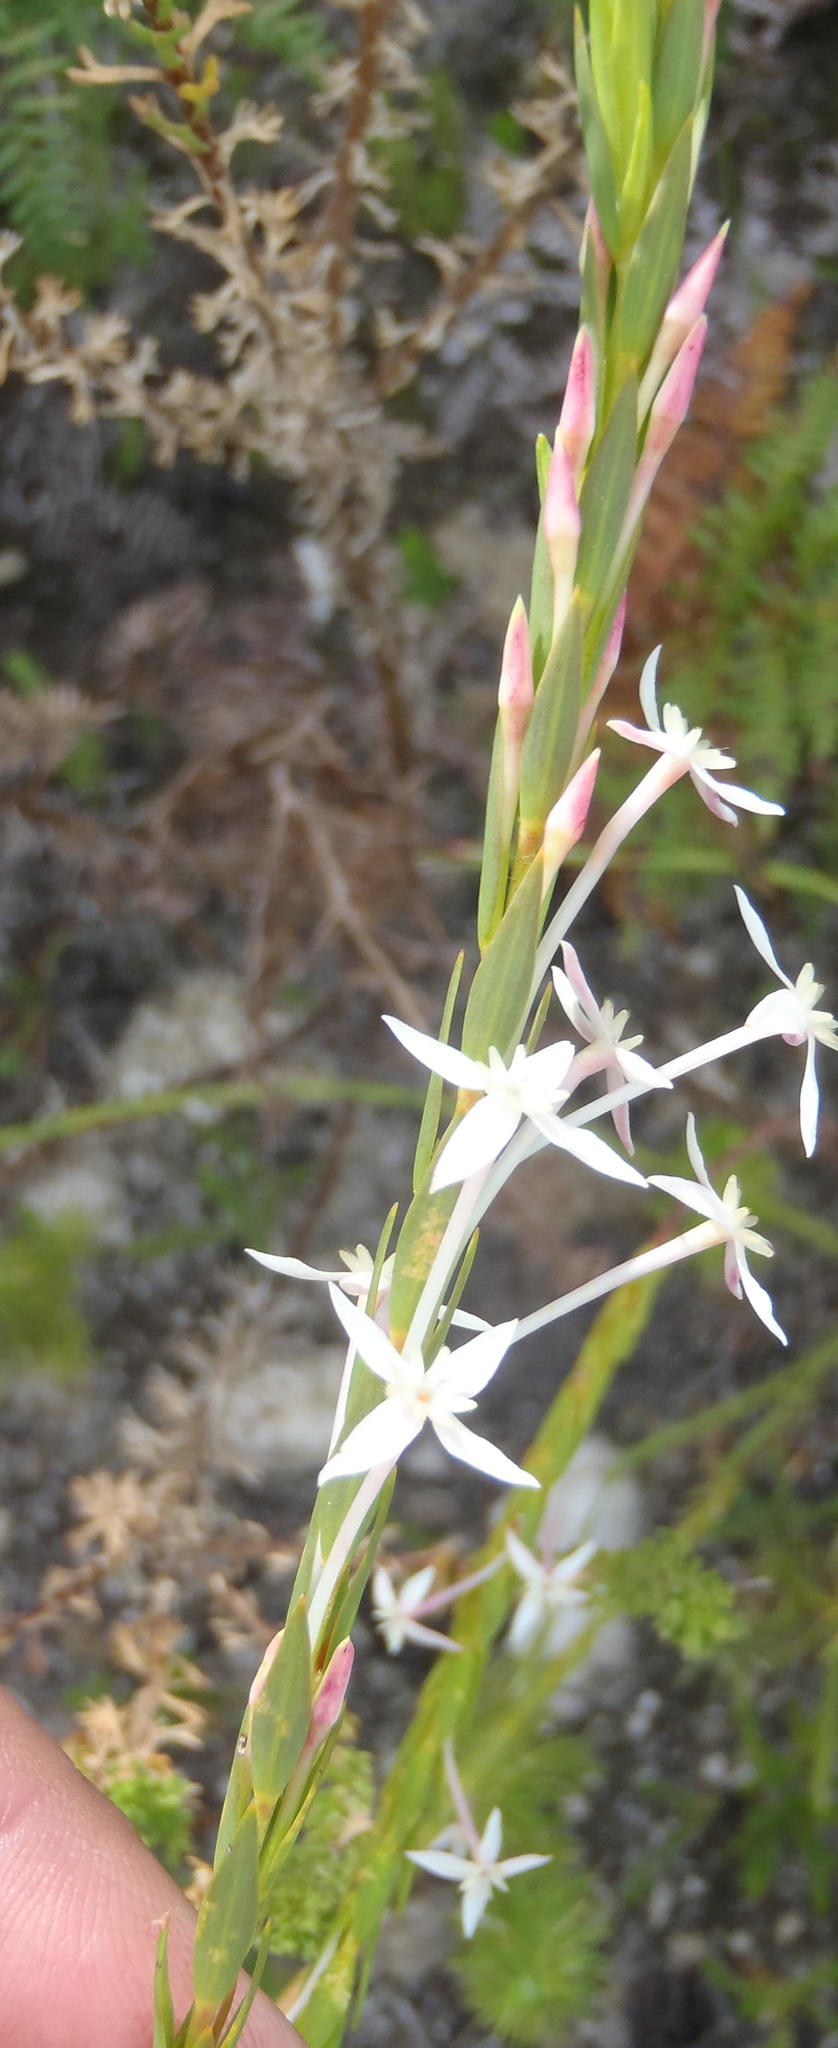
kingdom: Plantae
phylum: Tracheophyta
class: Magnoliopsida
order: Malvales
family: Thymelaeaceae
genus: Struthiola
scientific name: Struthiola myrsinites
